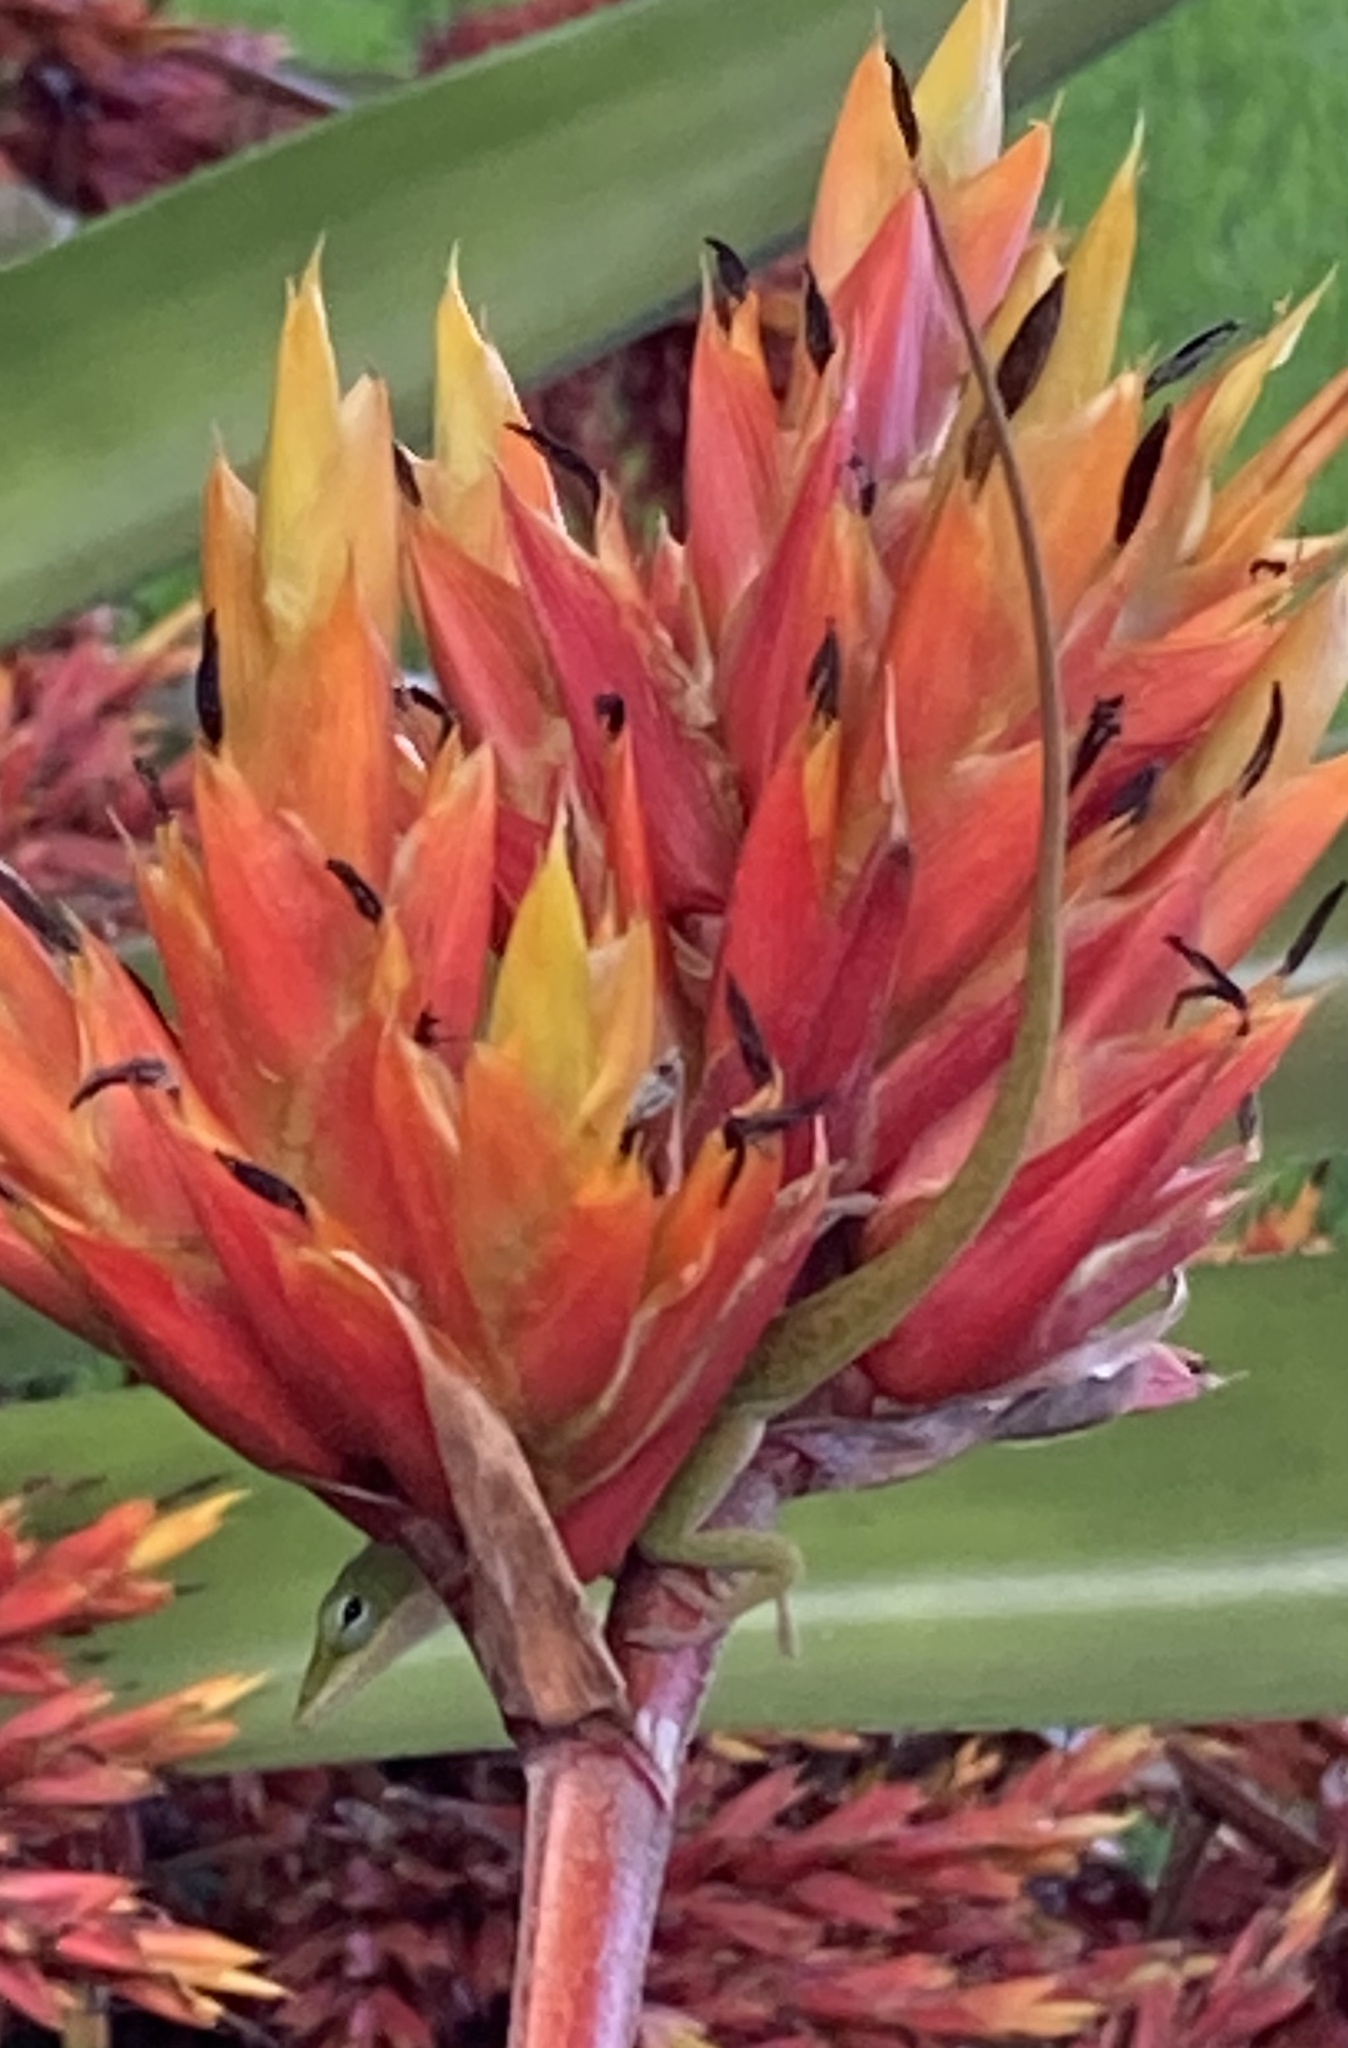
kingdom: Animalia
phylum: Chordata
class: Squamata
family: Dactyloidae
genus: Anolis
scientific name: Anolis carolinensis
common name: Green anole
